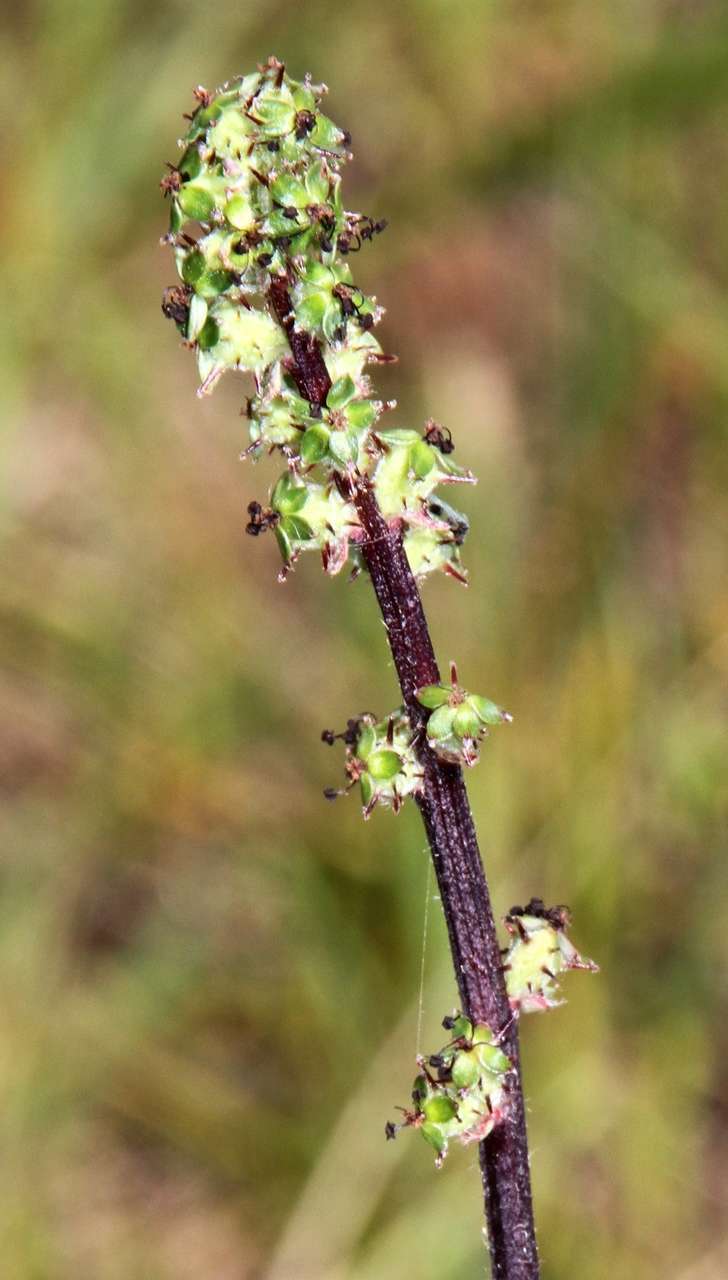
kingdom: Plantae
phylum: Tracheophyta
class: Magnoliopsida
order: Rosales
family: Rosaceae
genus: Acaena
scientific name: Acaena echinata
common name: Sheepbur
